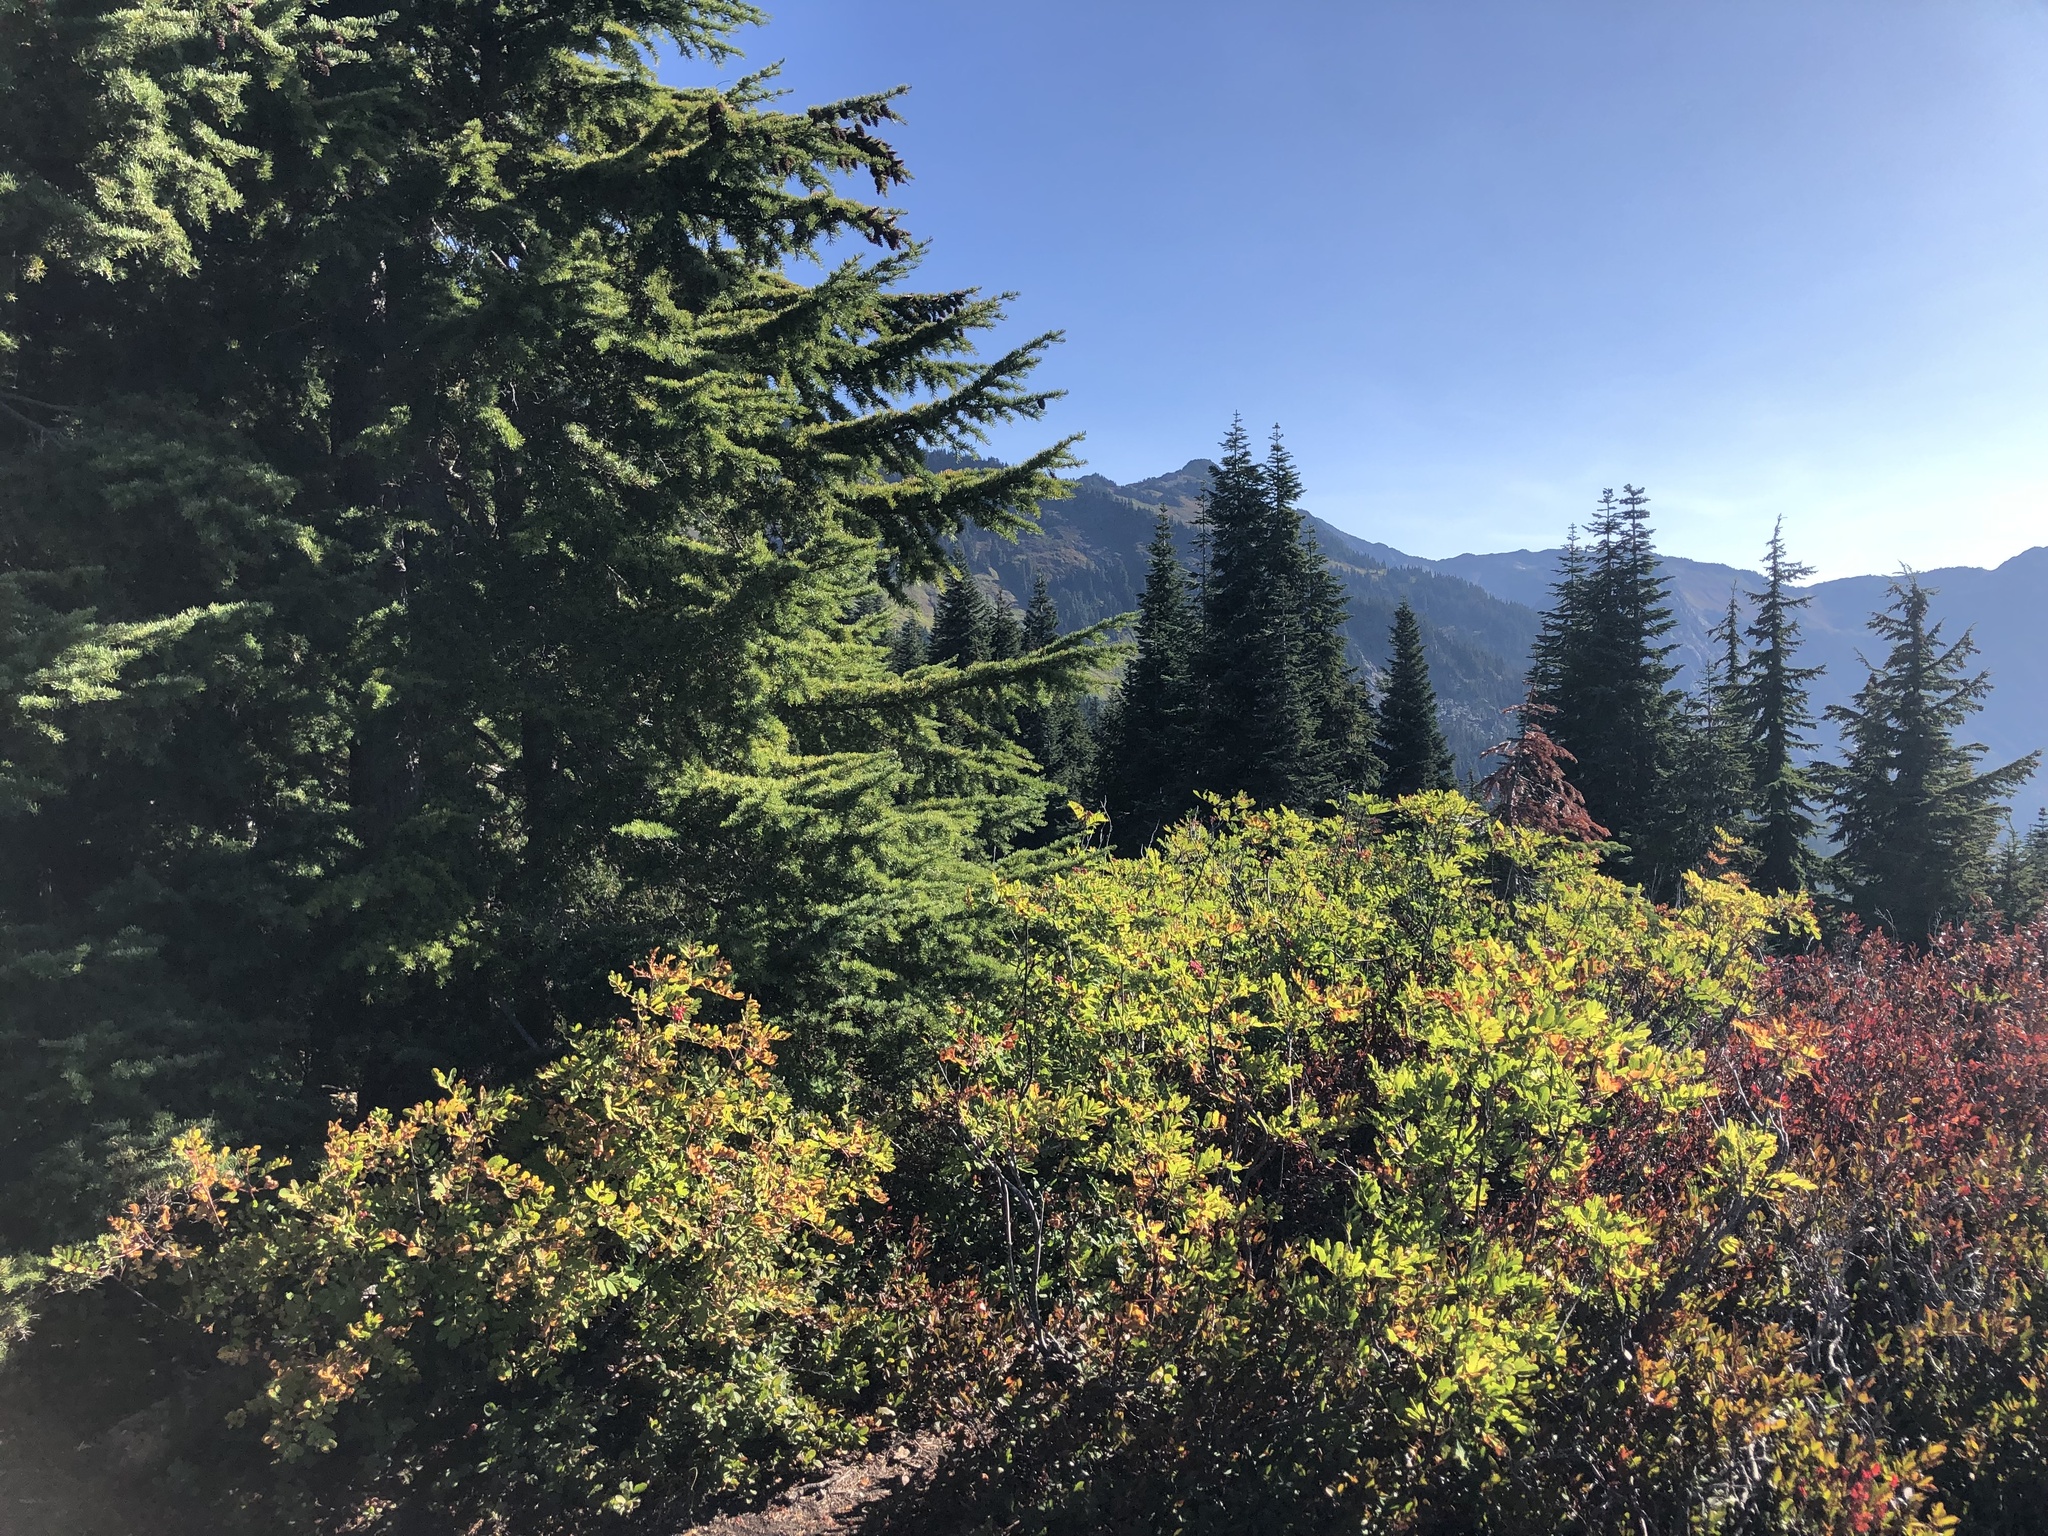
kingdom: Plantae
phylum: Tracheophyta
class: Pinopsida
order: Pinales
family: Pinaceae
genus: Tsuga
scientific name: Tsuga mertensiana
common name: Mountain hemlock
